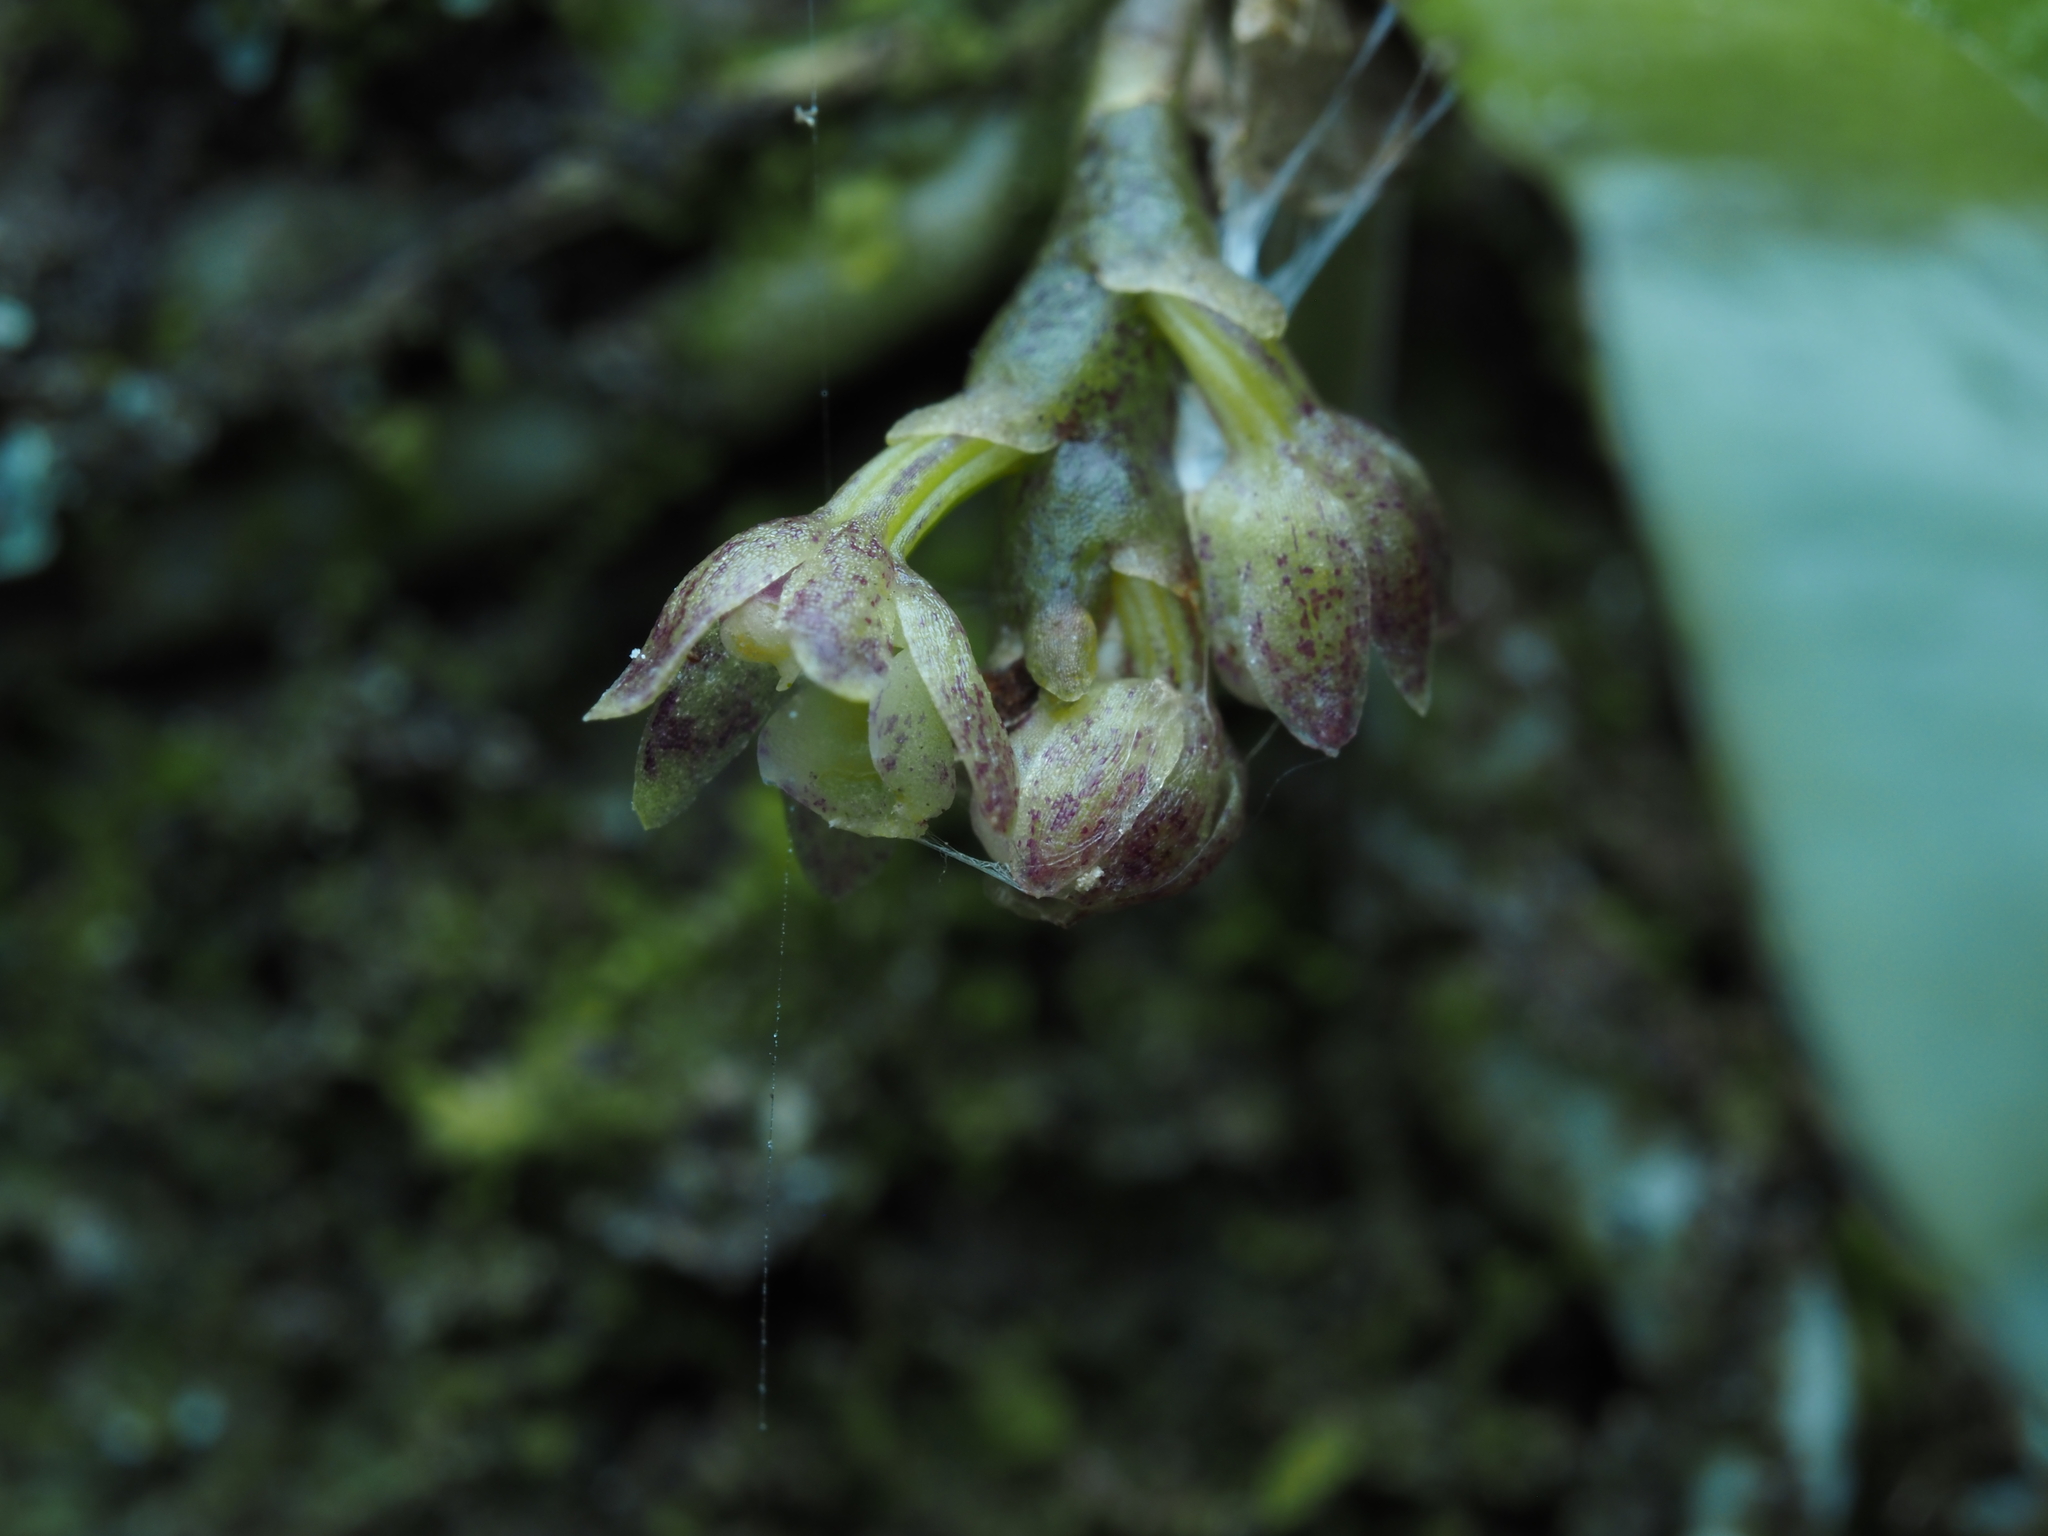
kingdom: Plantae
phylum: Tracheophyta
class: Liliopsida
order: Asparagales
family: Orchidaceae
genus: Drymoanthus
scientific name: Drymoanthus adversus
